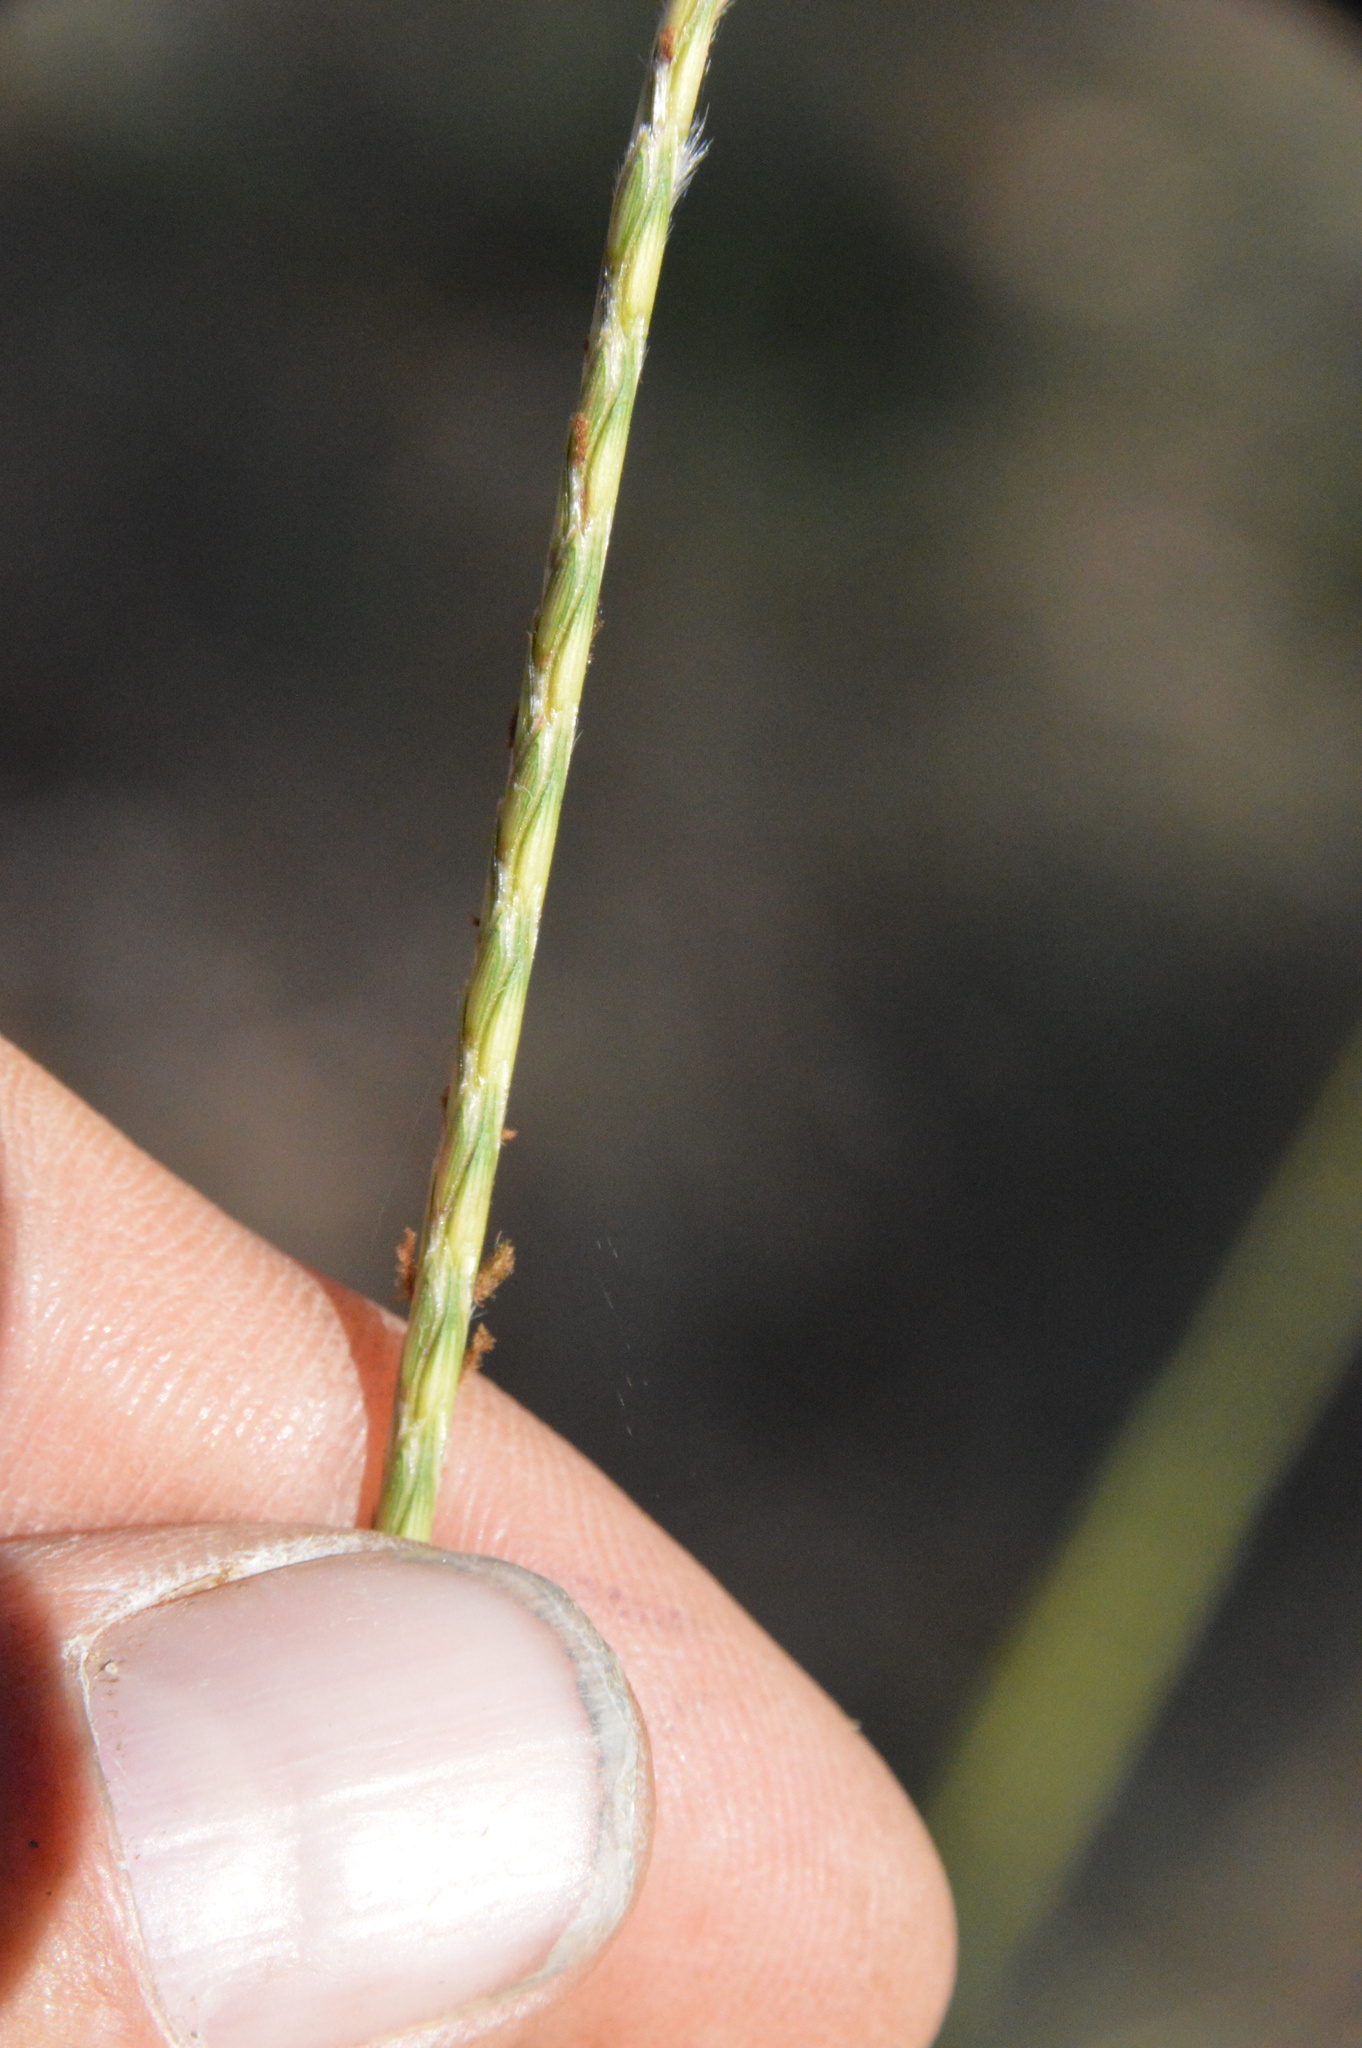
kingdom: Plantae
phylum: Tracheophyta
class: Liliopsida
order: Poales
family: Poaceae
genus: Elionurus
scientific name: Elionurus tripsacoides
